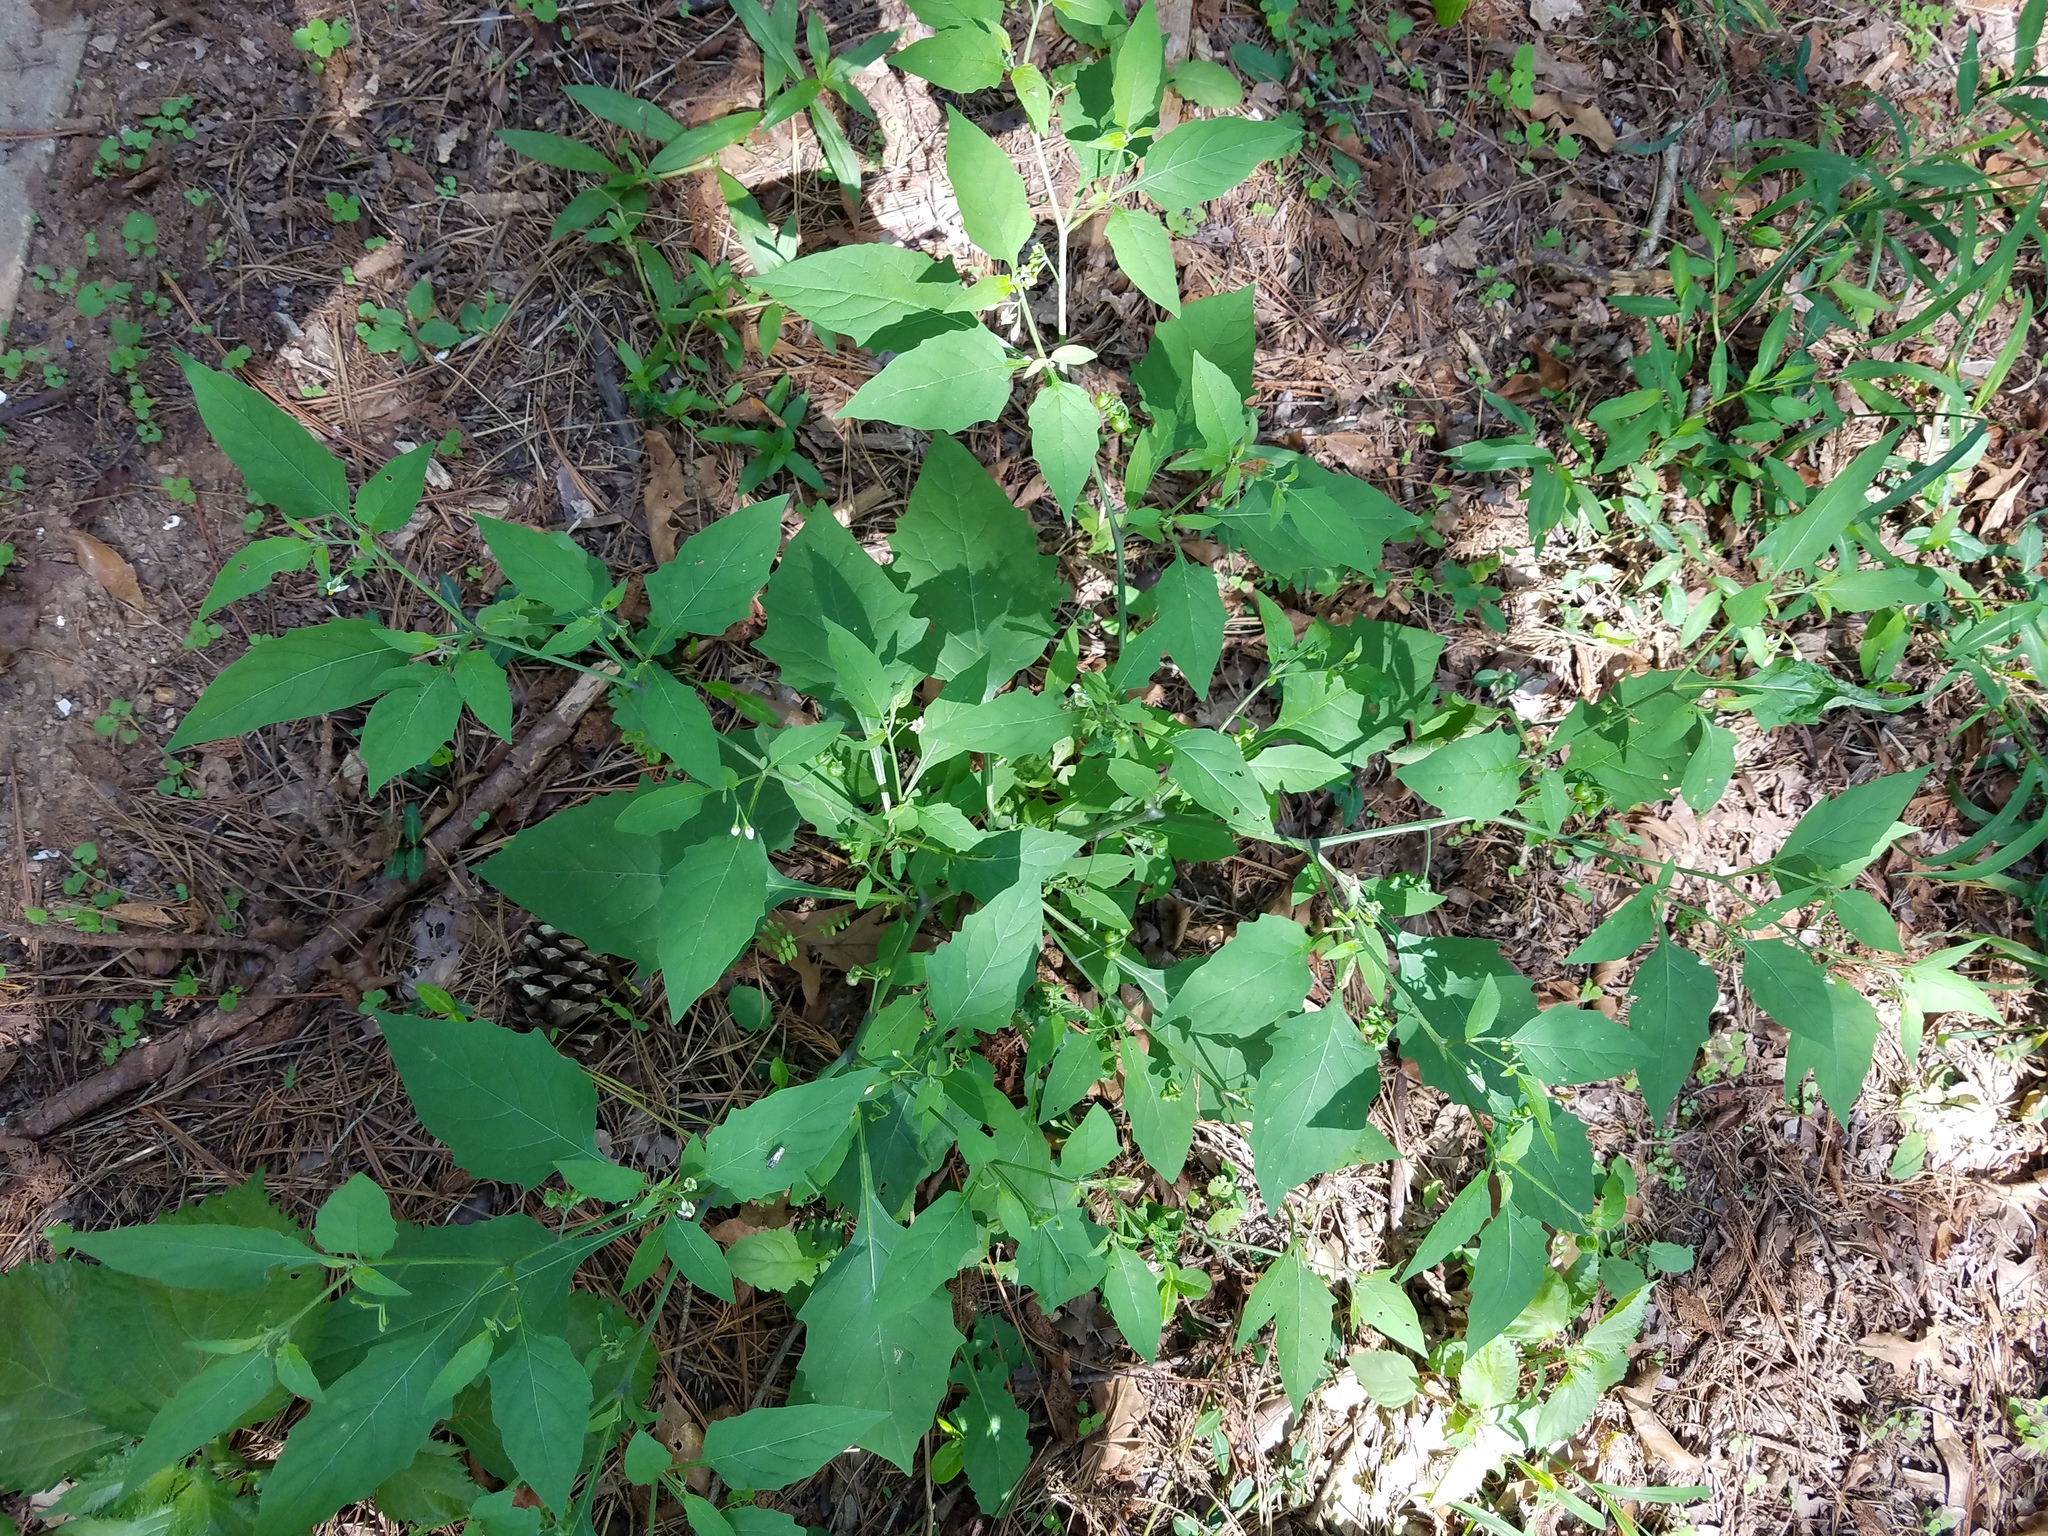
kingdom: Plantae
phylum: Tracheophyta
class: Magnoliopsida
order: Solanales
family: Solanaceae
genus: Solanum
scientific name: Solanum emulans
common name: Eastern black nightshade
